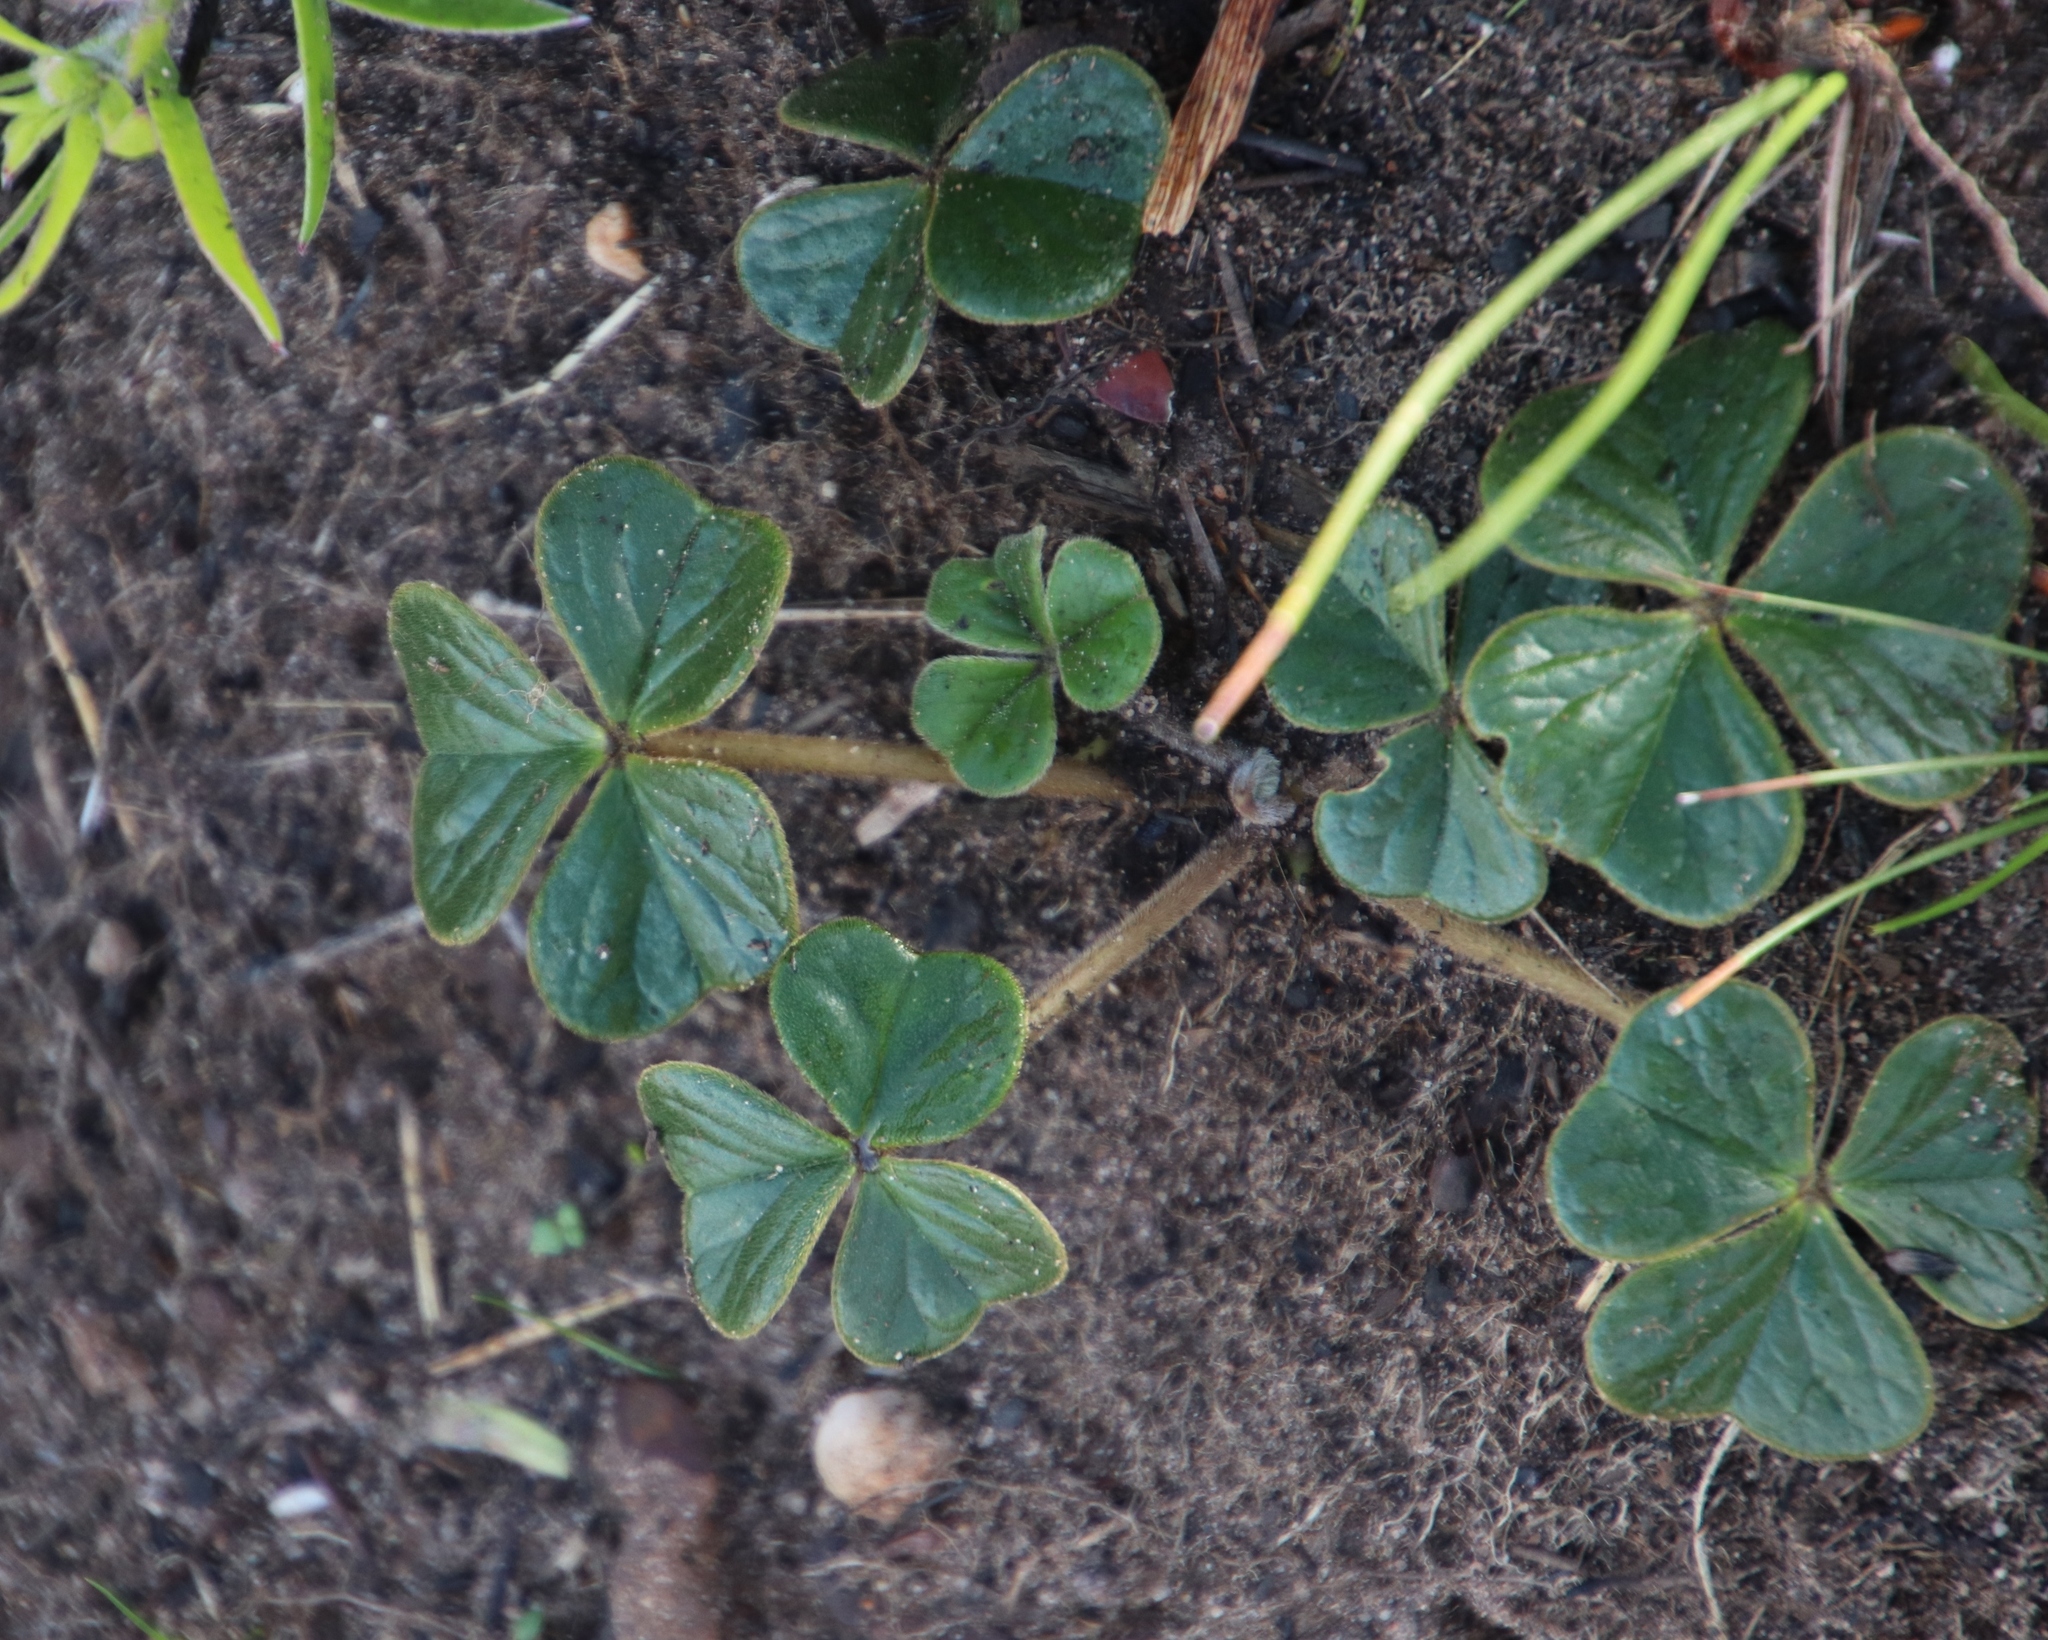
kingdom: Plantae
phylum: Tracheophyta
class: Magnoliopsida
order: Oxalidales
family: Oxalidaceae
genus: Oxalis
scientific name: Oxalis truncatula
